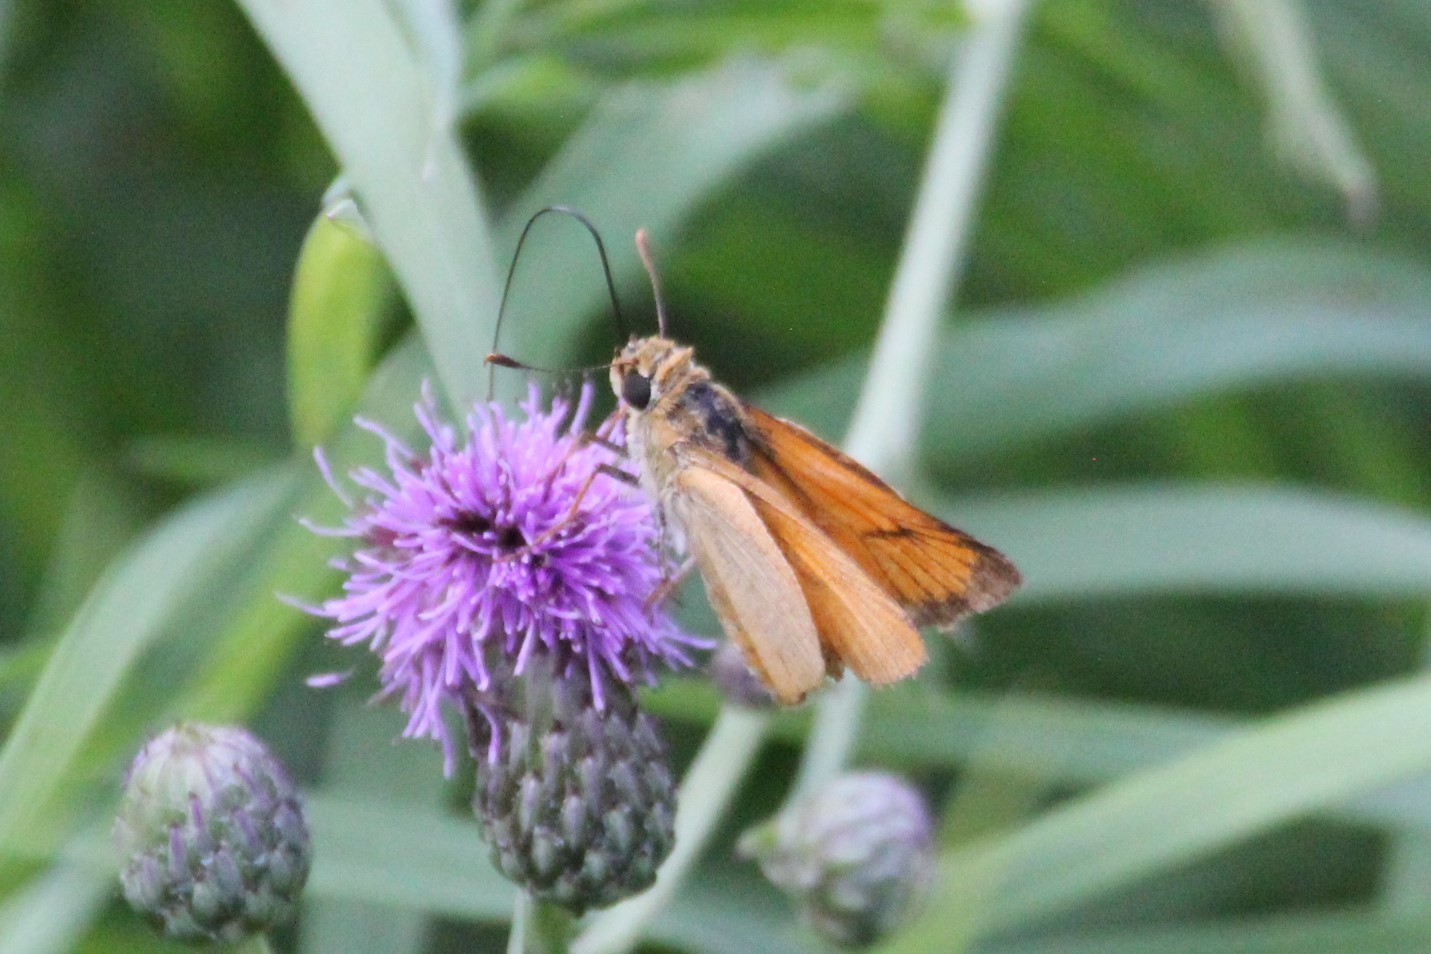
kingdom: Animalia
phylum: Arthropoda
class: Insecta
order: Lepidoptera
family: Hesperiidae
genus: Atrytone
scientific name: Atrytone delaware
